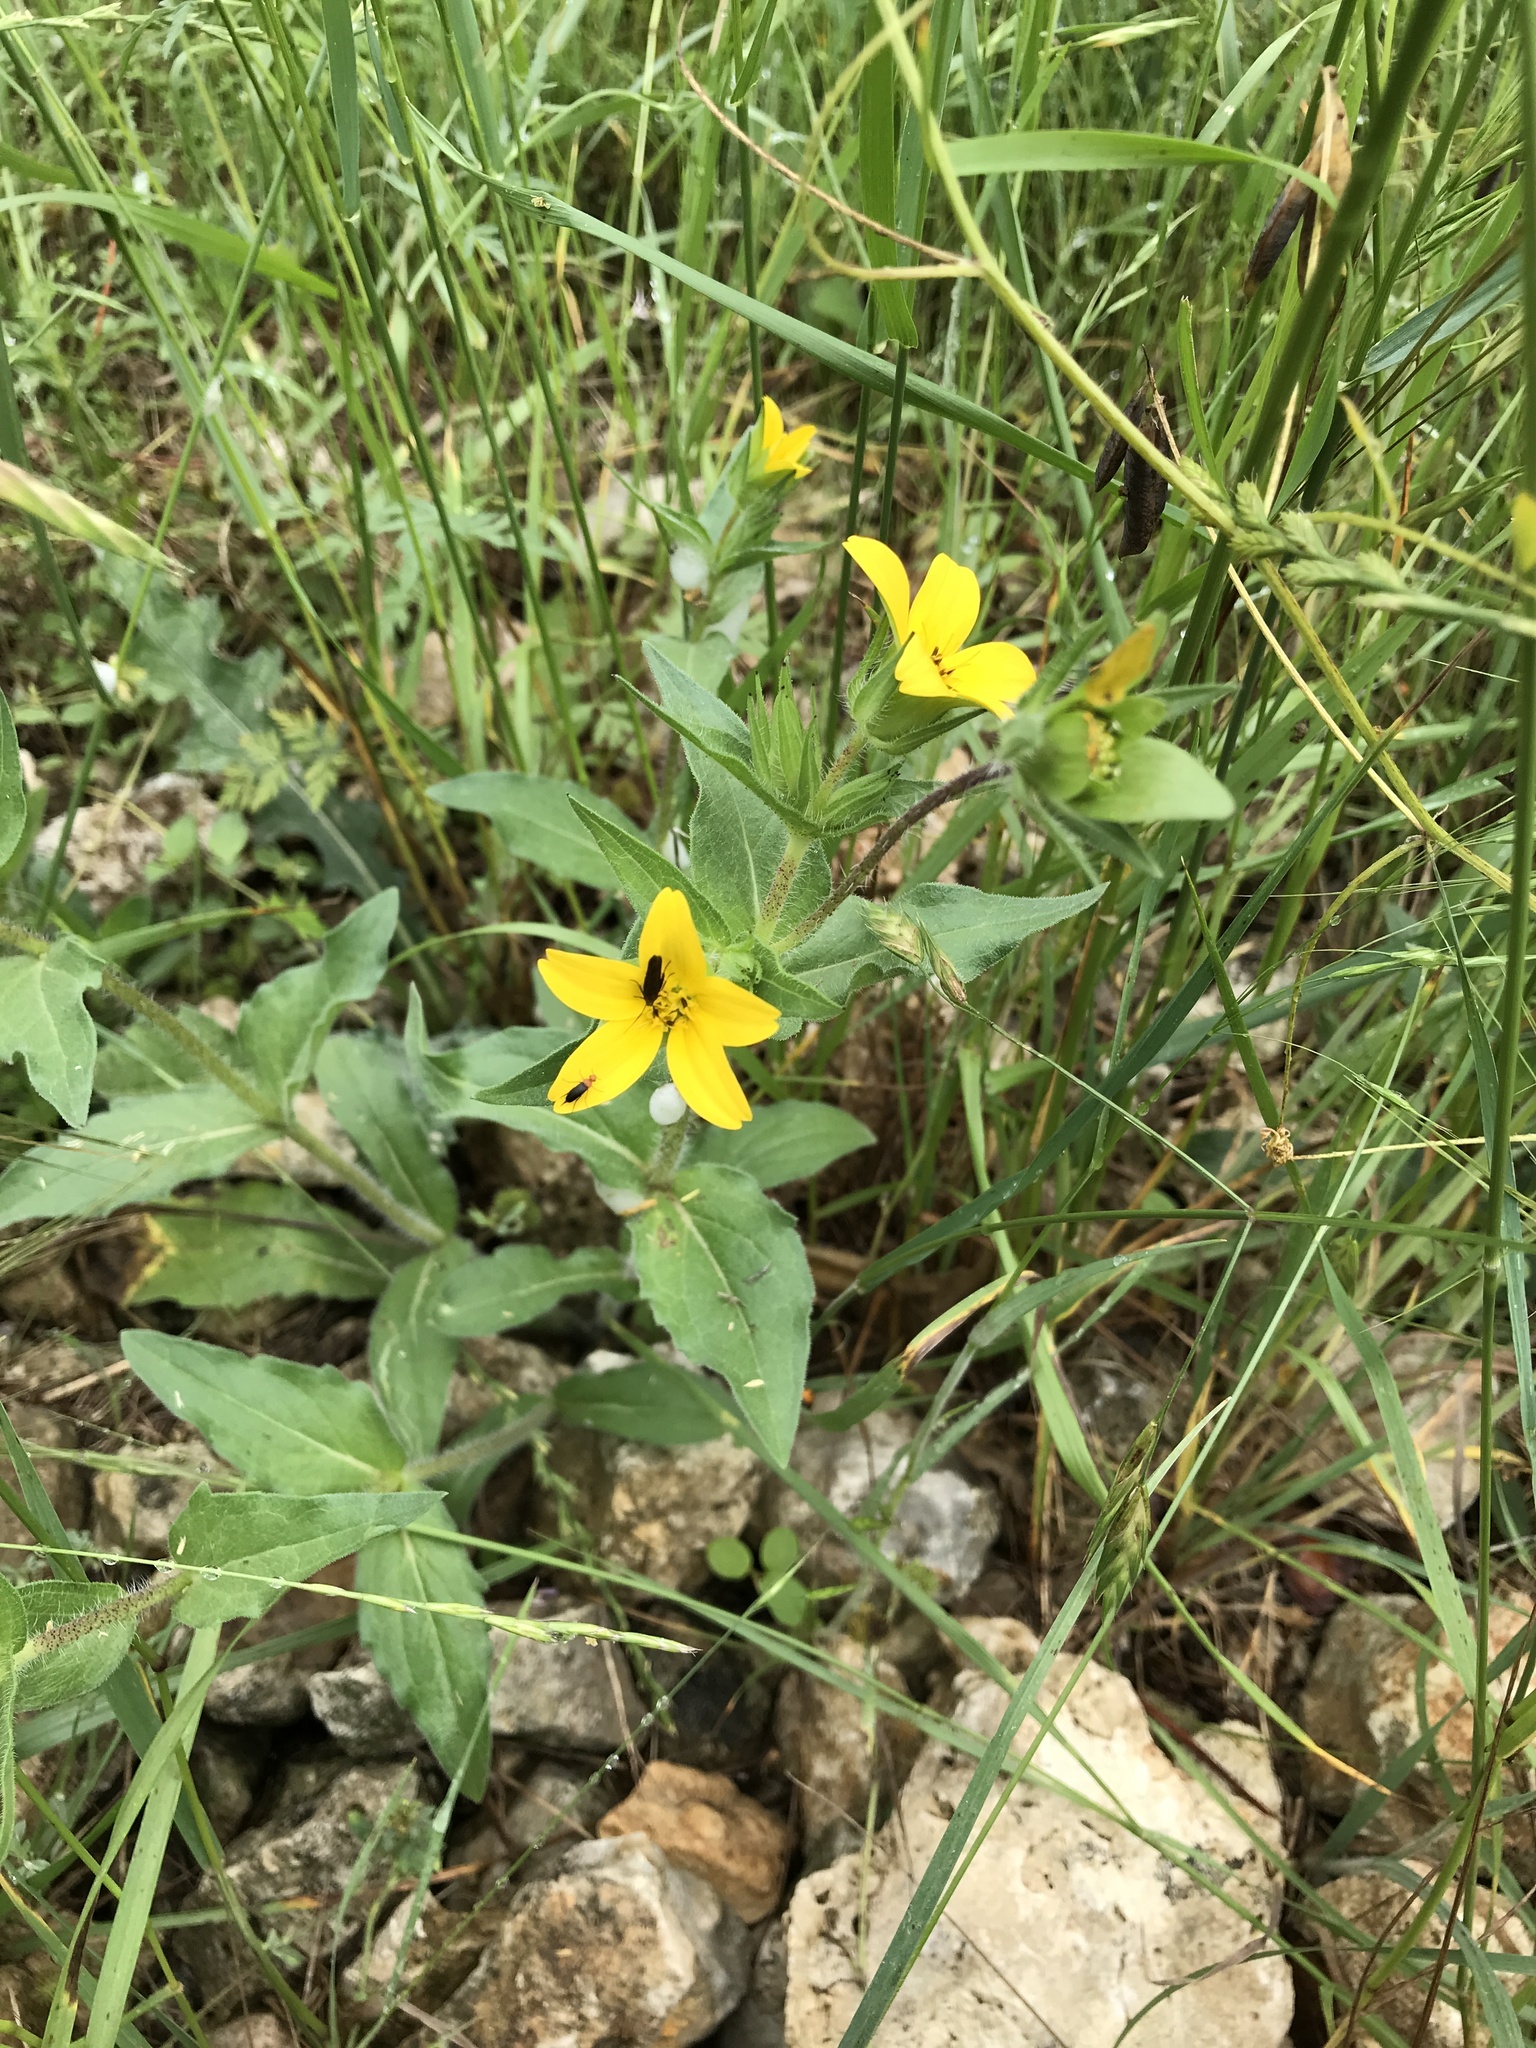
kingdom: Plantae
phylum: Tracheophyta
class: Magnoliopsida
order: Asterales
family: Asteraceae
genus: Lindheimera
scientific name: Lindheimera texana
